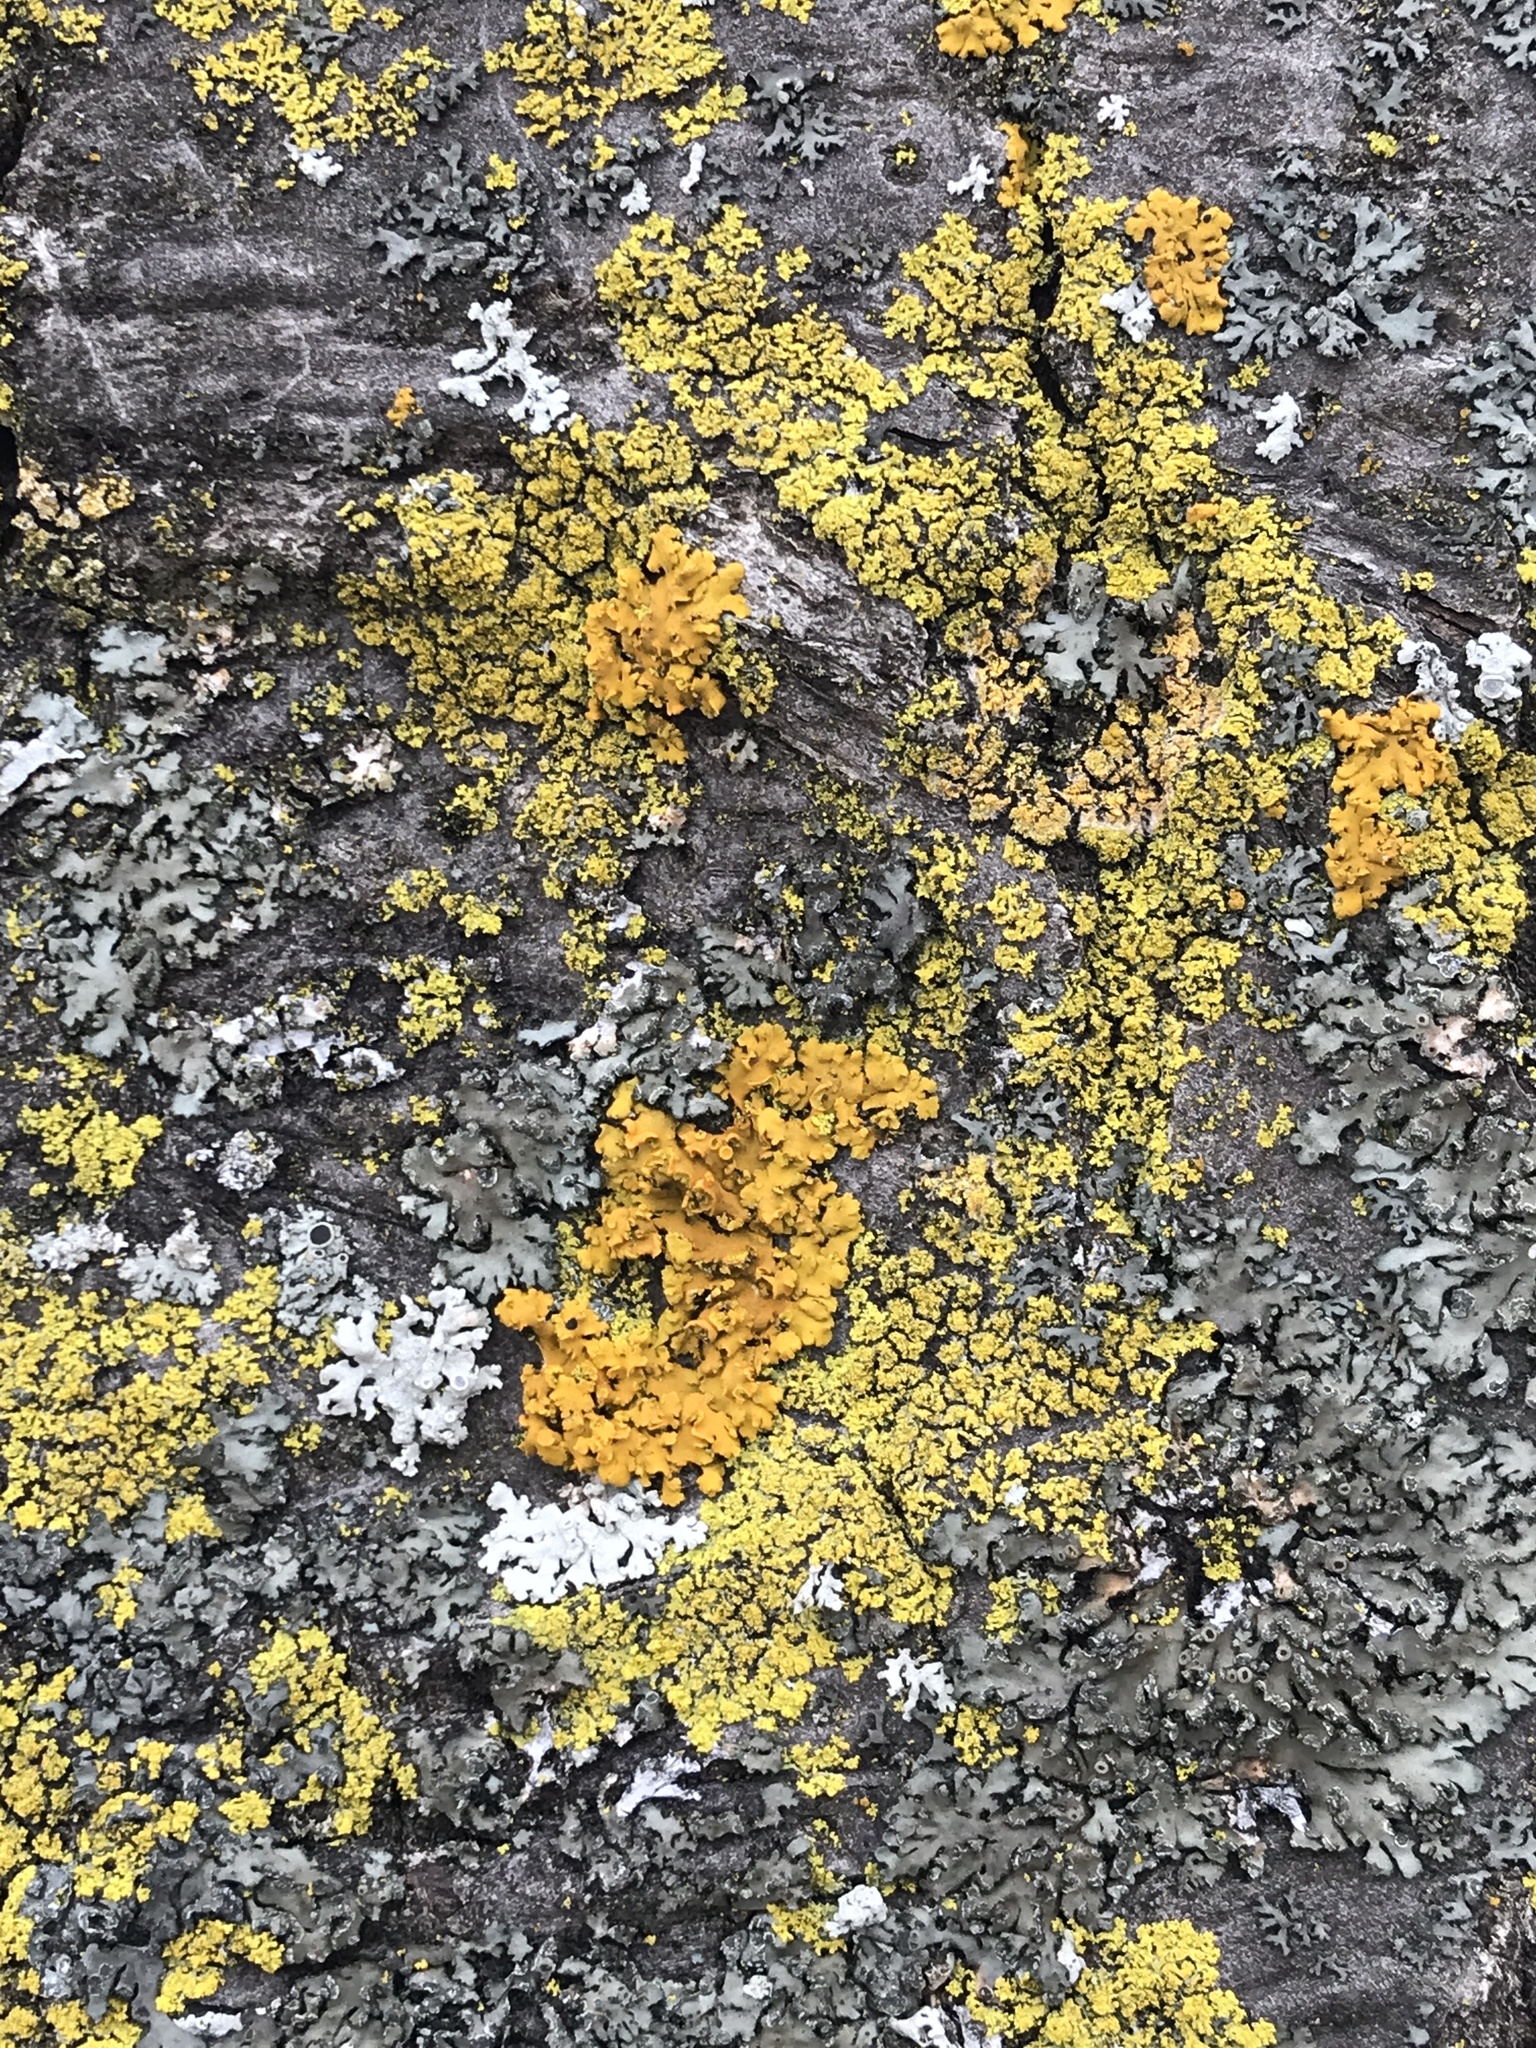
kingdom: Fungi
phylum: Ascomycota
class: Lecanoromycetes
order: Teloschistales
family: Teloschistaceae
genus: Oxneria
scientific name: Oxneria fallax
